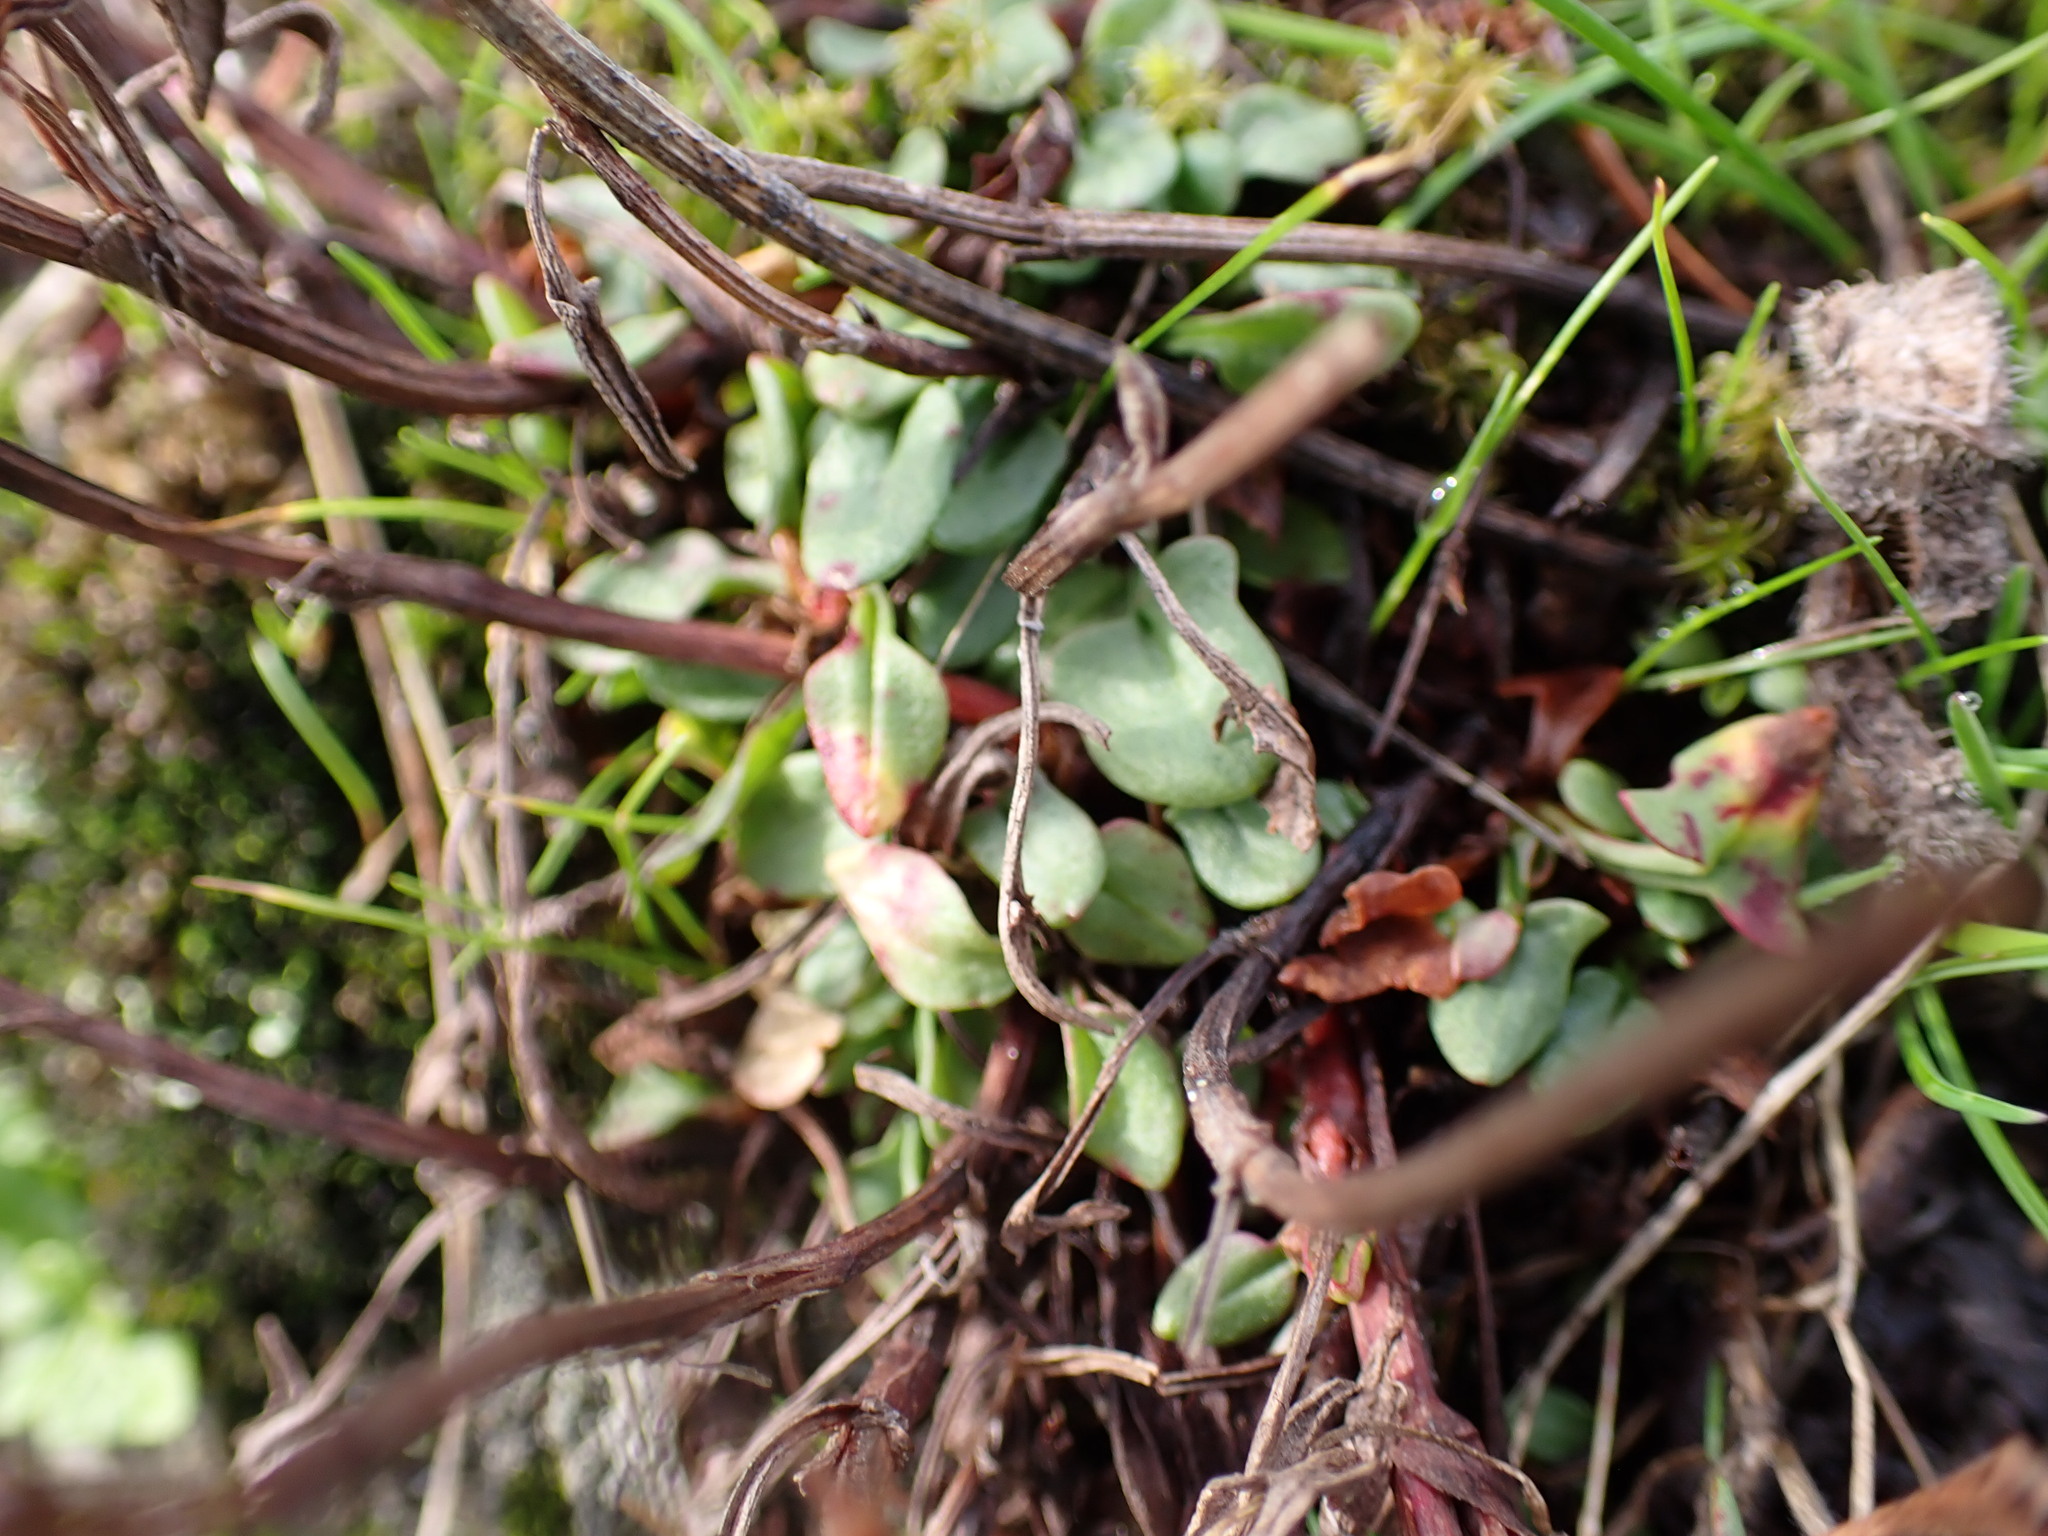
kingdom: Plantae
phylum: Tracheophyta
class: Magnoliopsida
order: Caryophyllales
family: Polygonaceae
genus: Rumex
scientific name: Rumex acetosella
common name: Common sheep sorrel
